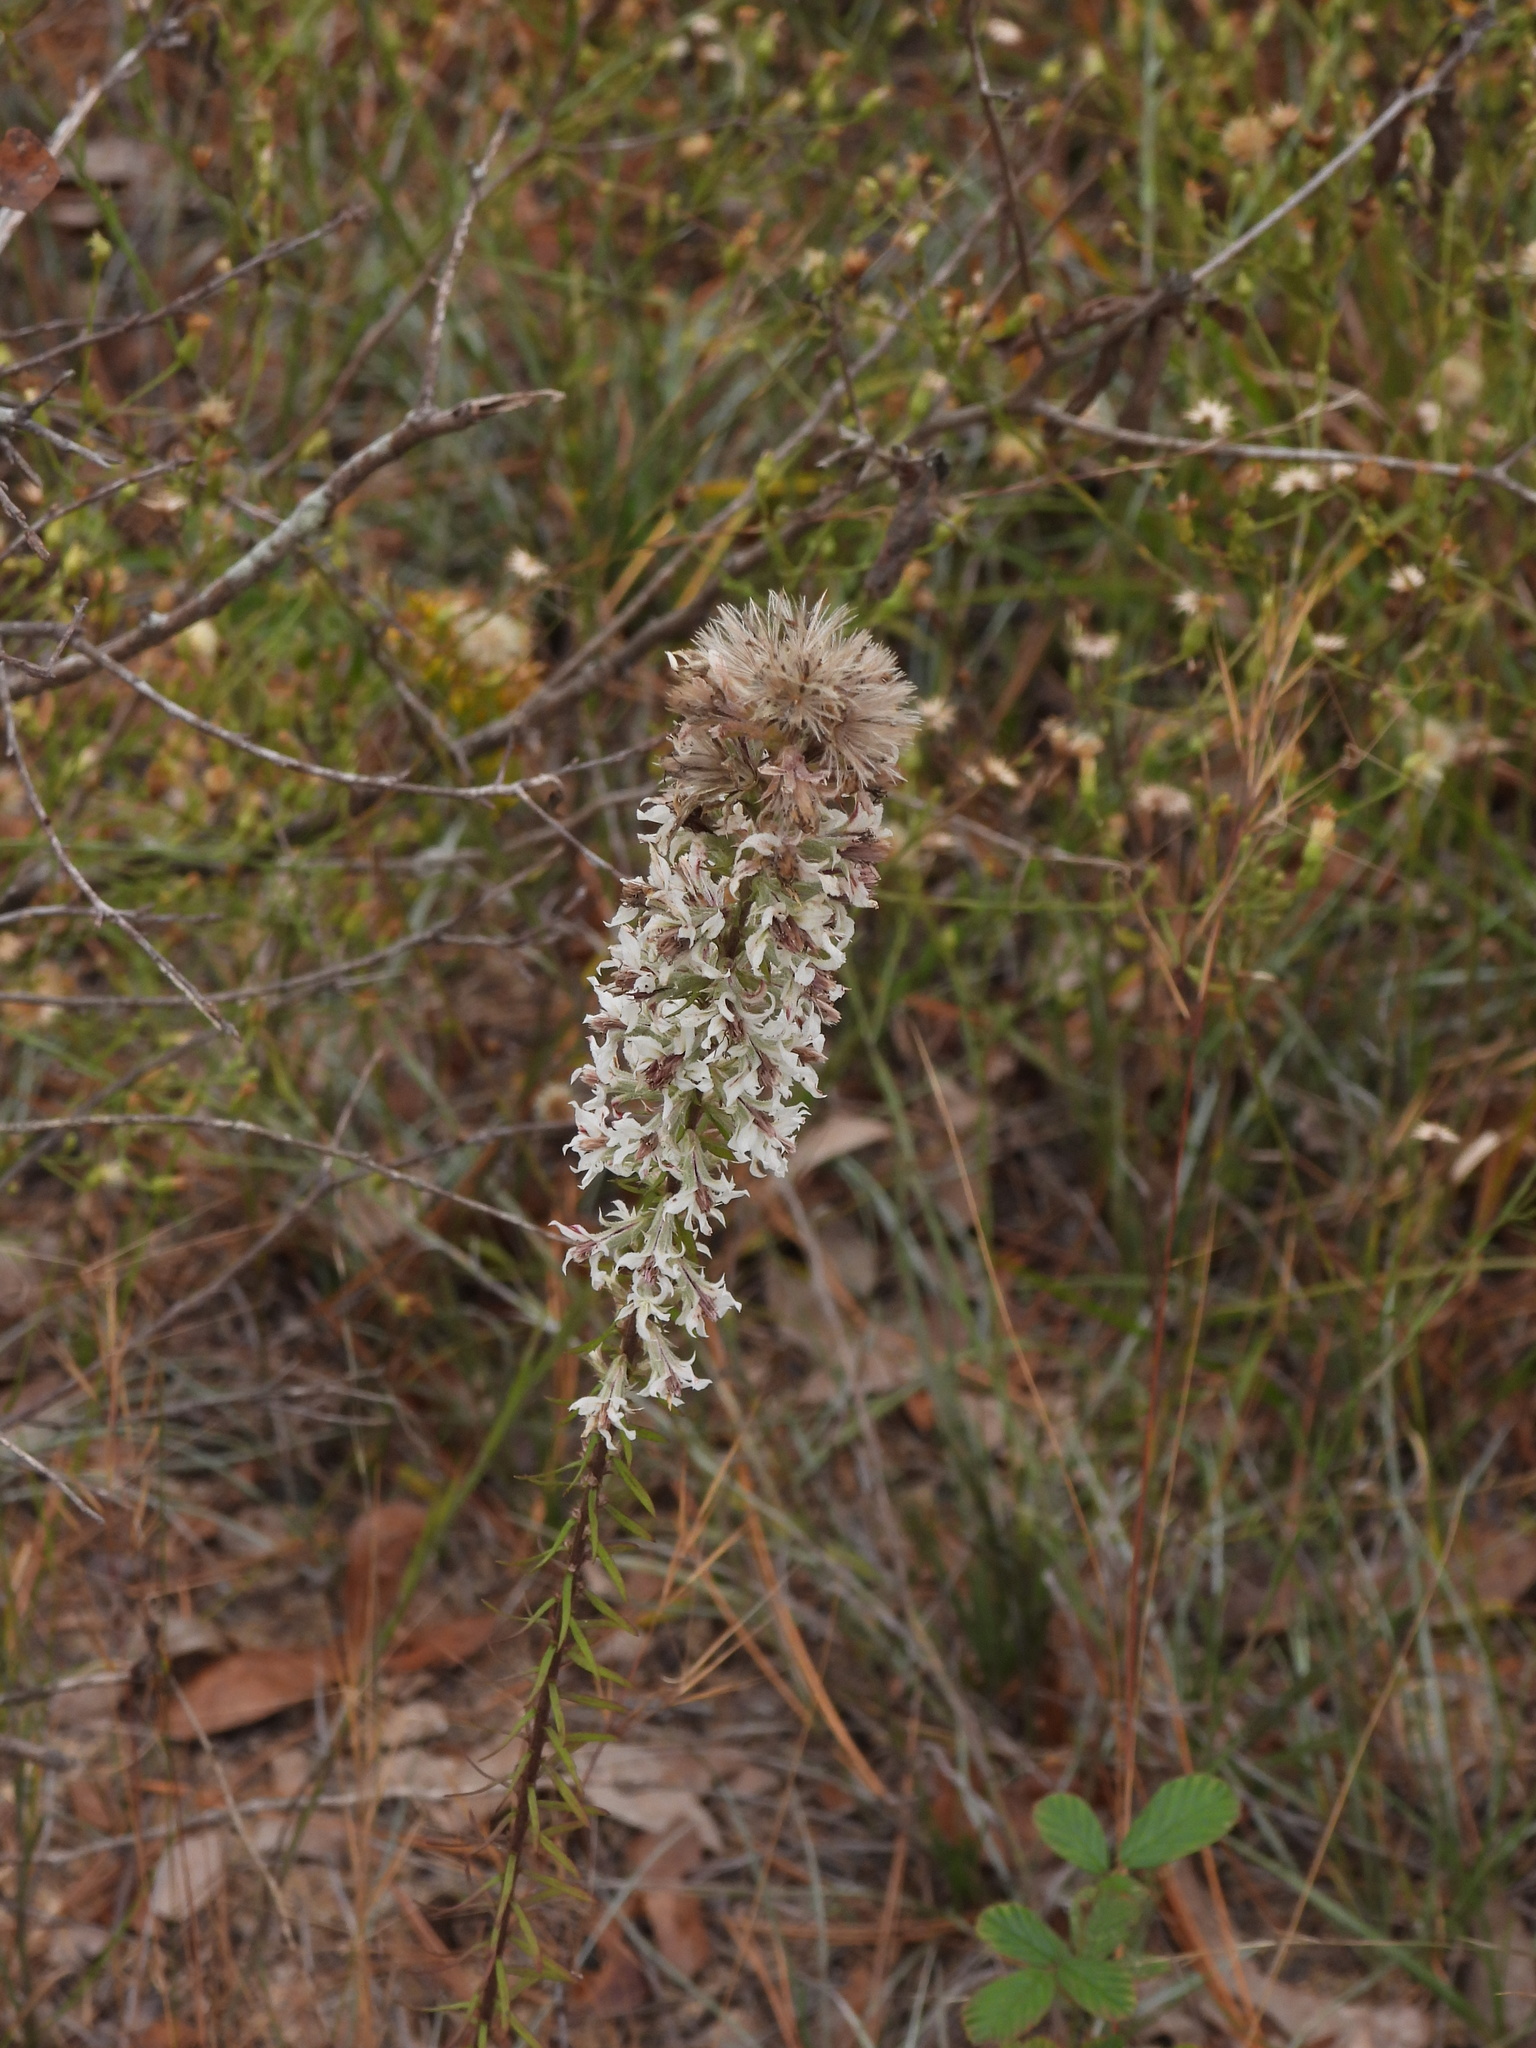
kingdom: Plantae
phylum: Tracheophyta
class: Magnoliopsida
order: Asterales
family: Asteraceae
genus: Liatris
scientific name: Liatris elegans
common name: Pinkscale gayfeather
